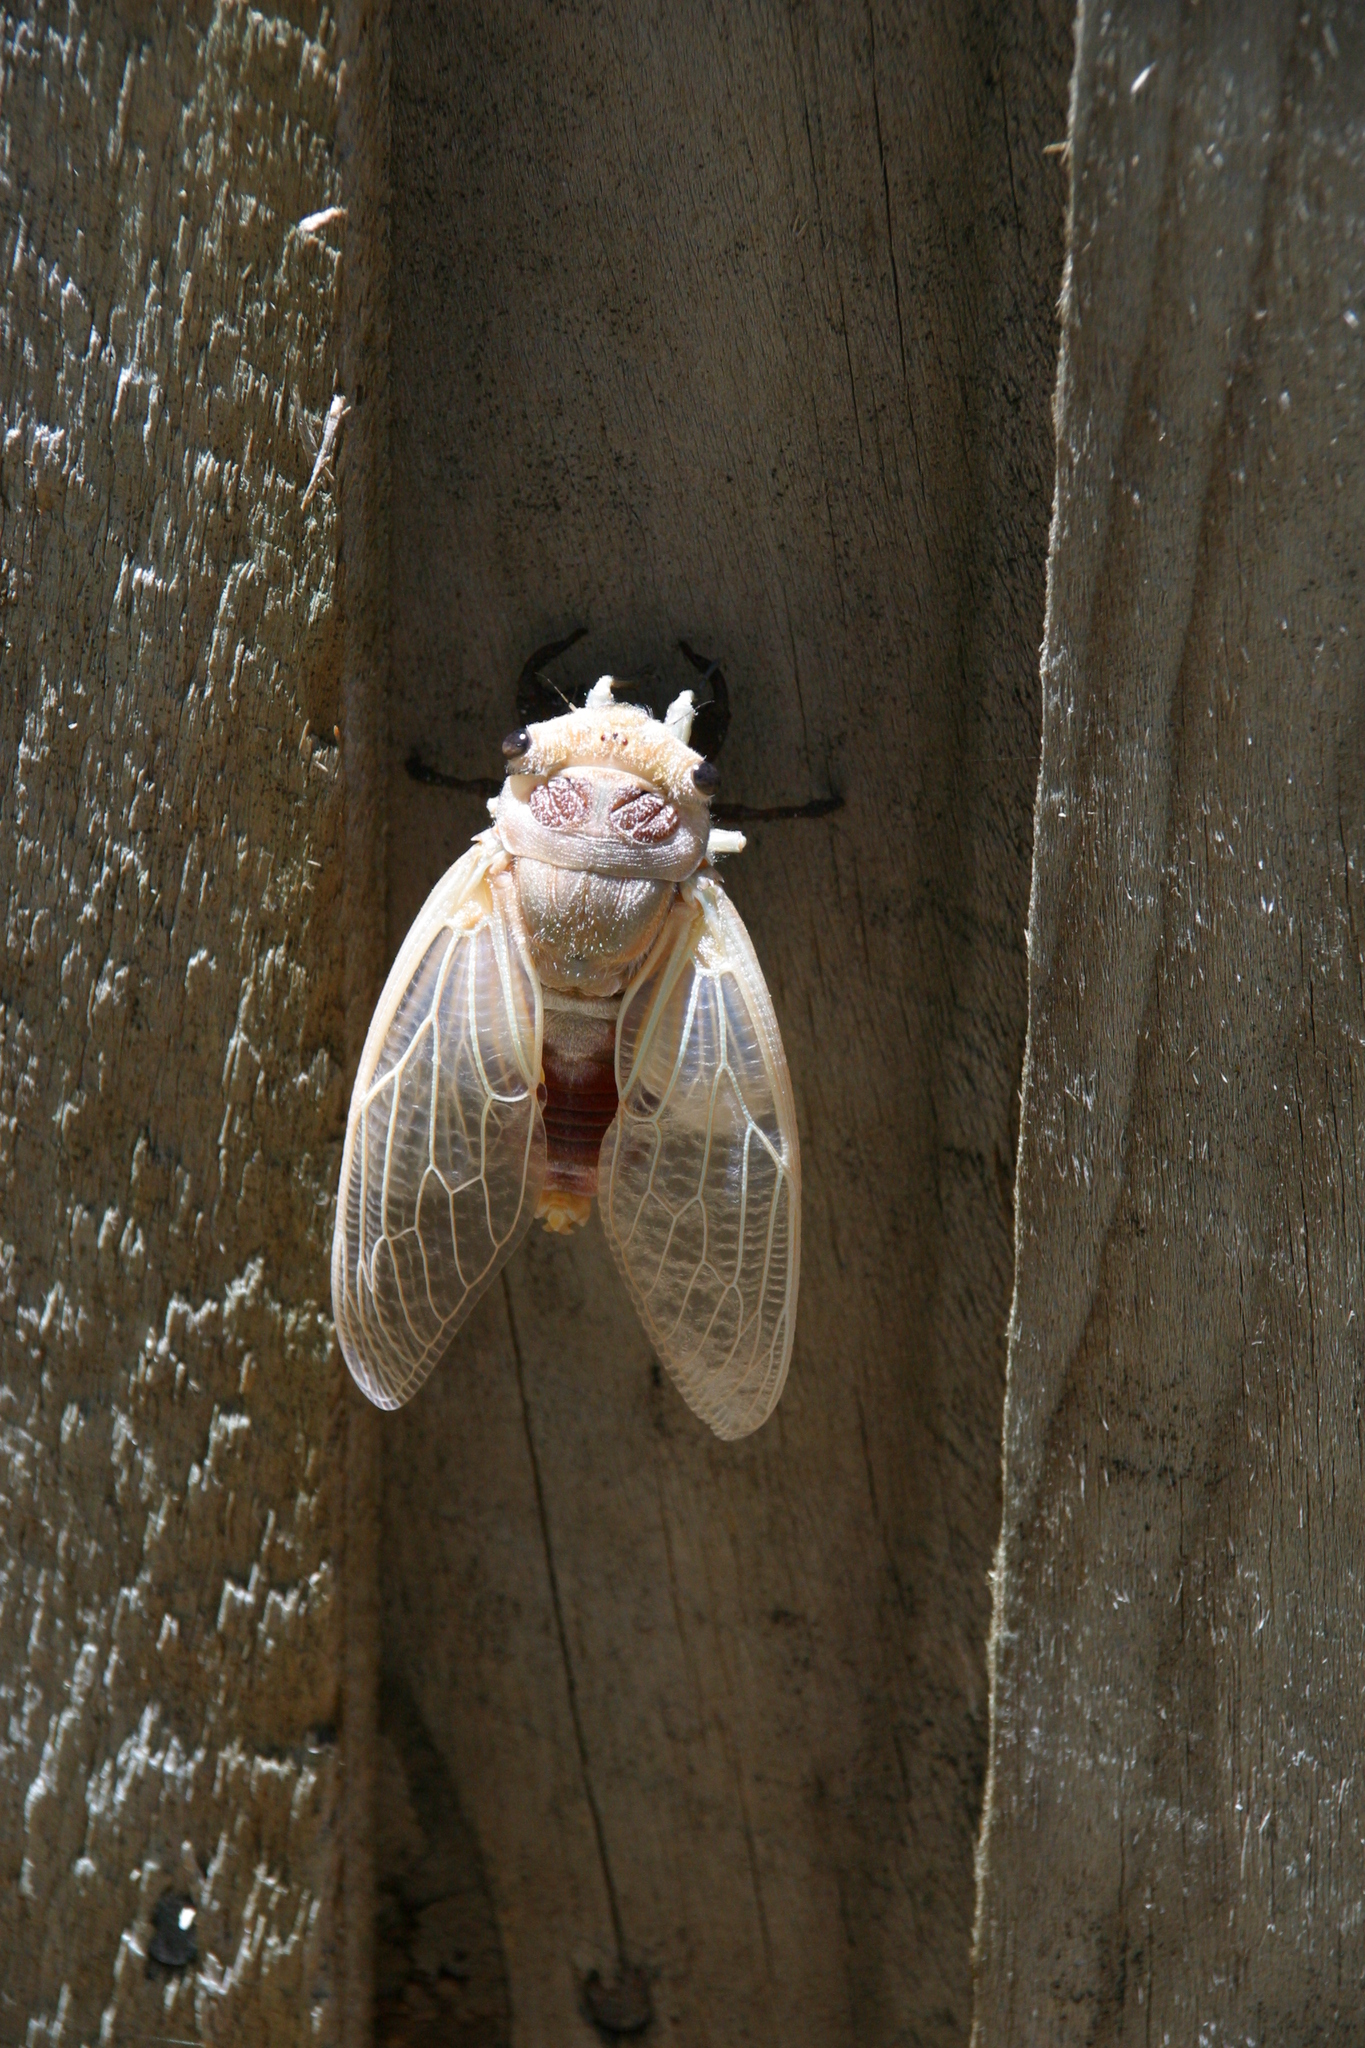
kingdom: Animalia
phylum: Arthropoda
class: Insecta
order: Hemiptera
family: Cicadidae
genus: Thopha
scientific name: Thopha saccata
